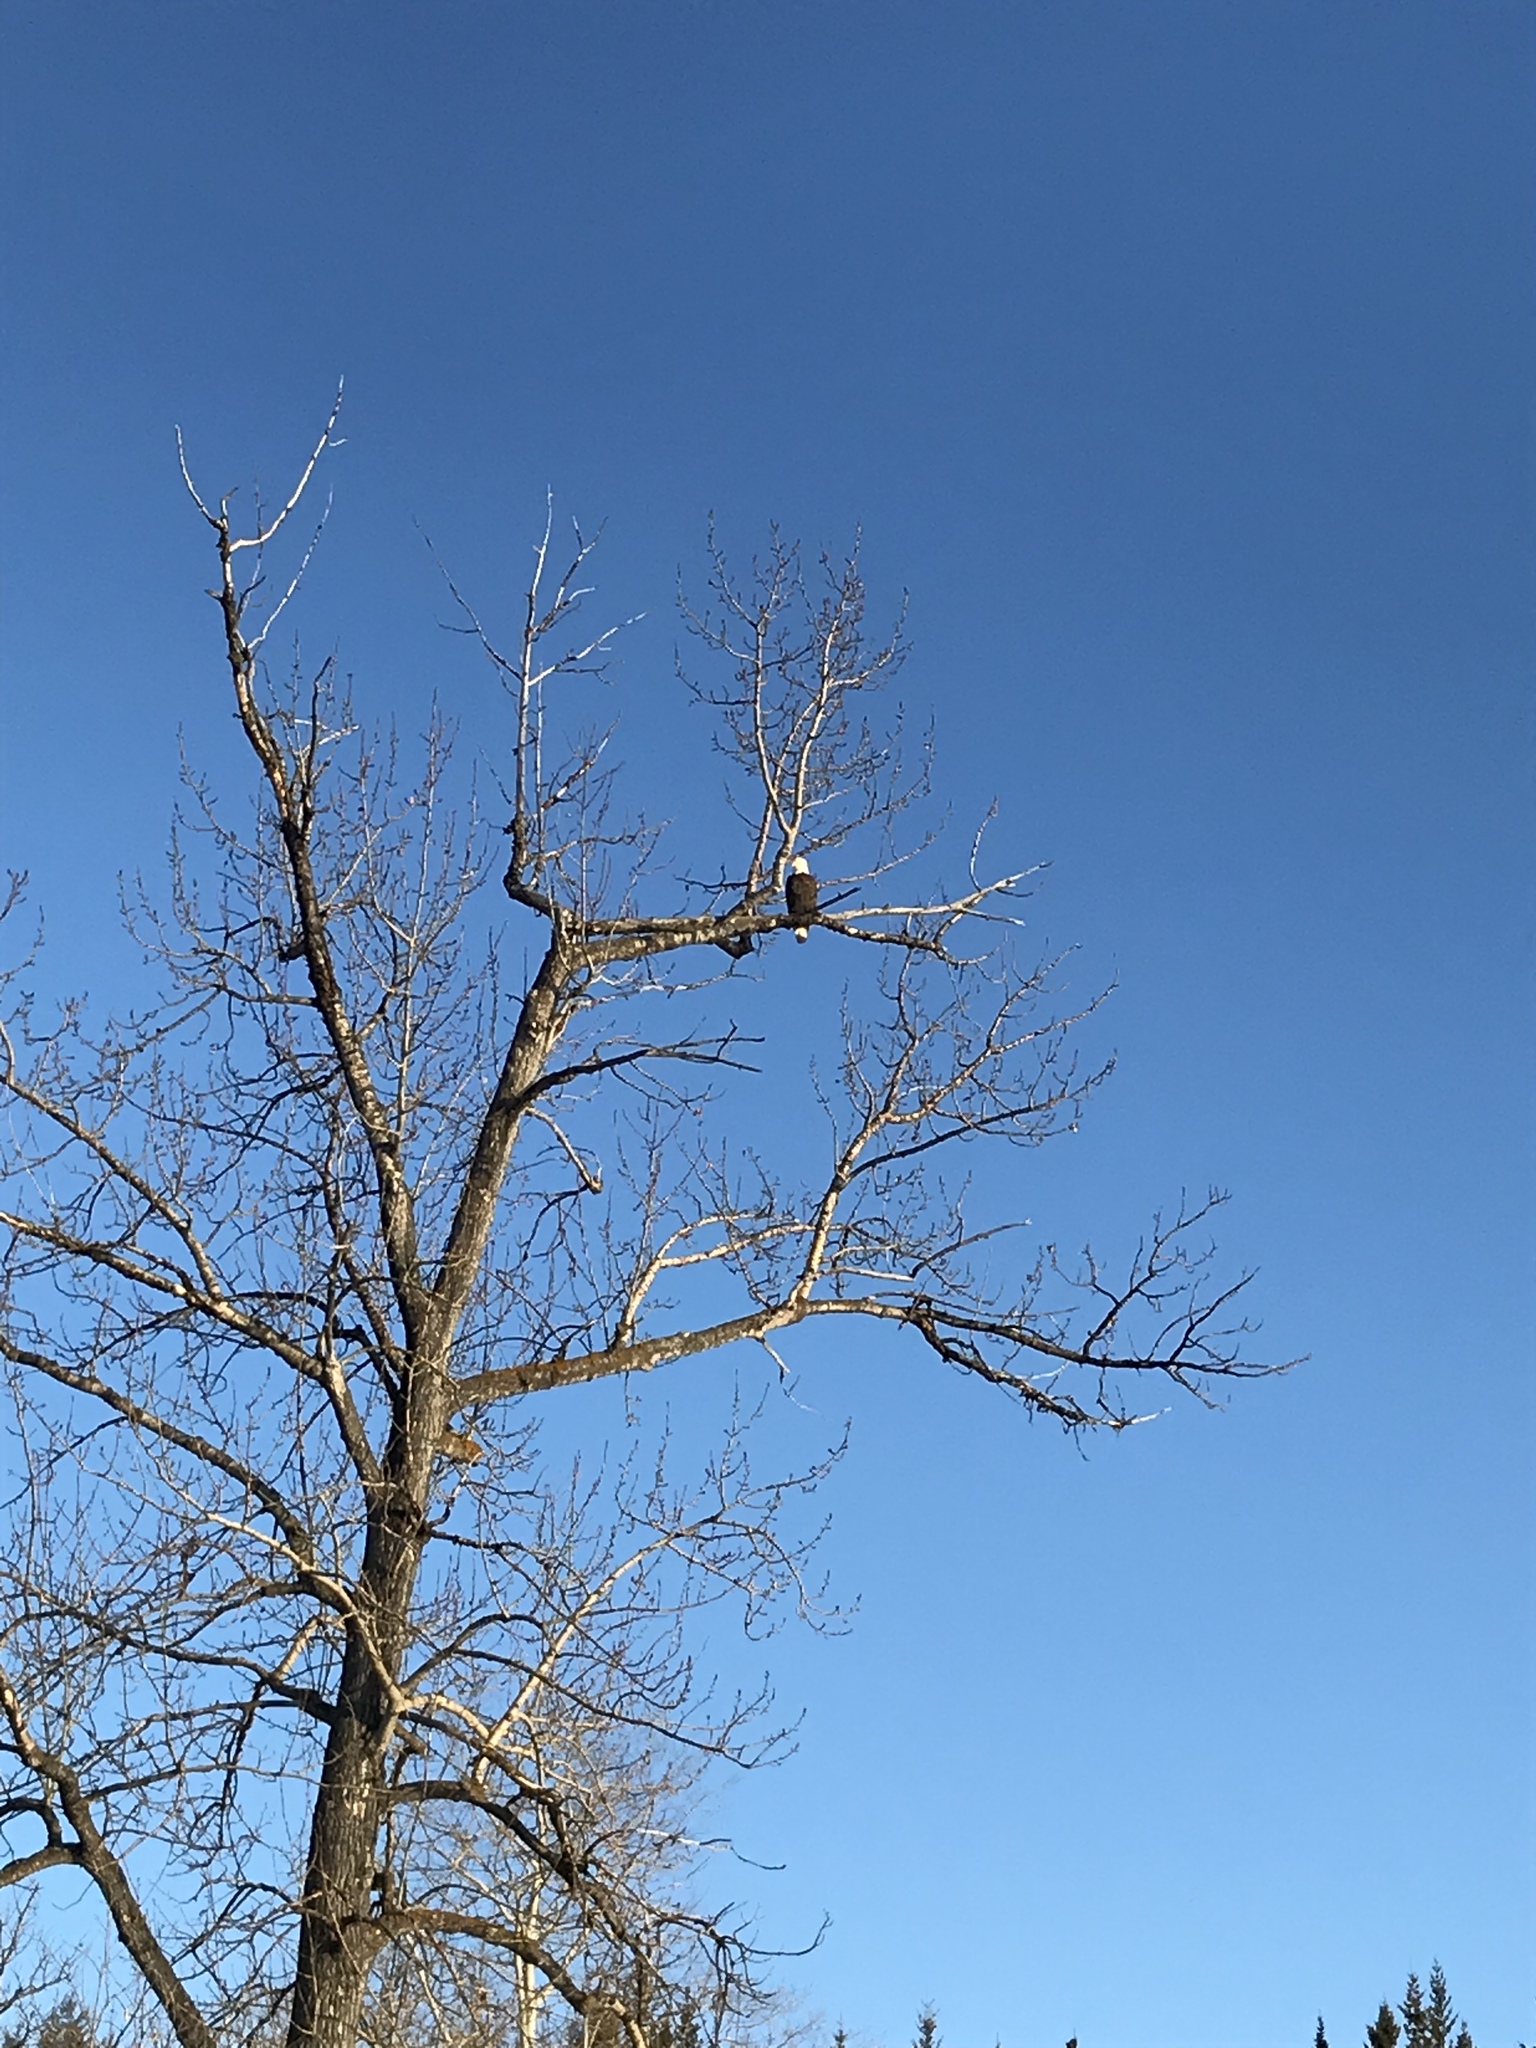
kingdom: Animalia
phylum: Chordata
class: Aves
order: Accipitriformes
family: Accipitridae
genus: Haliaeetus
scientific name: Haliaeetus leucocephalus
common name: Bald eagle
